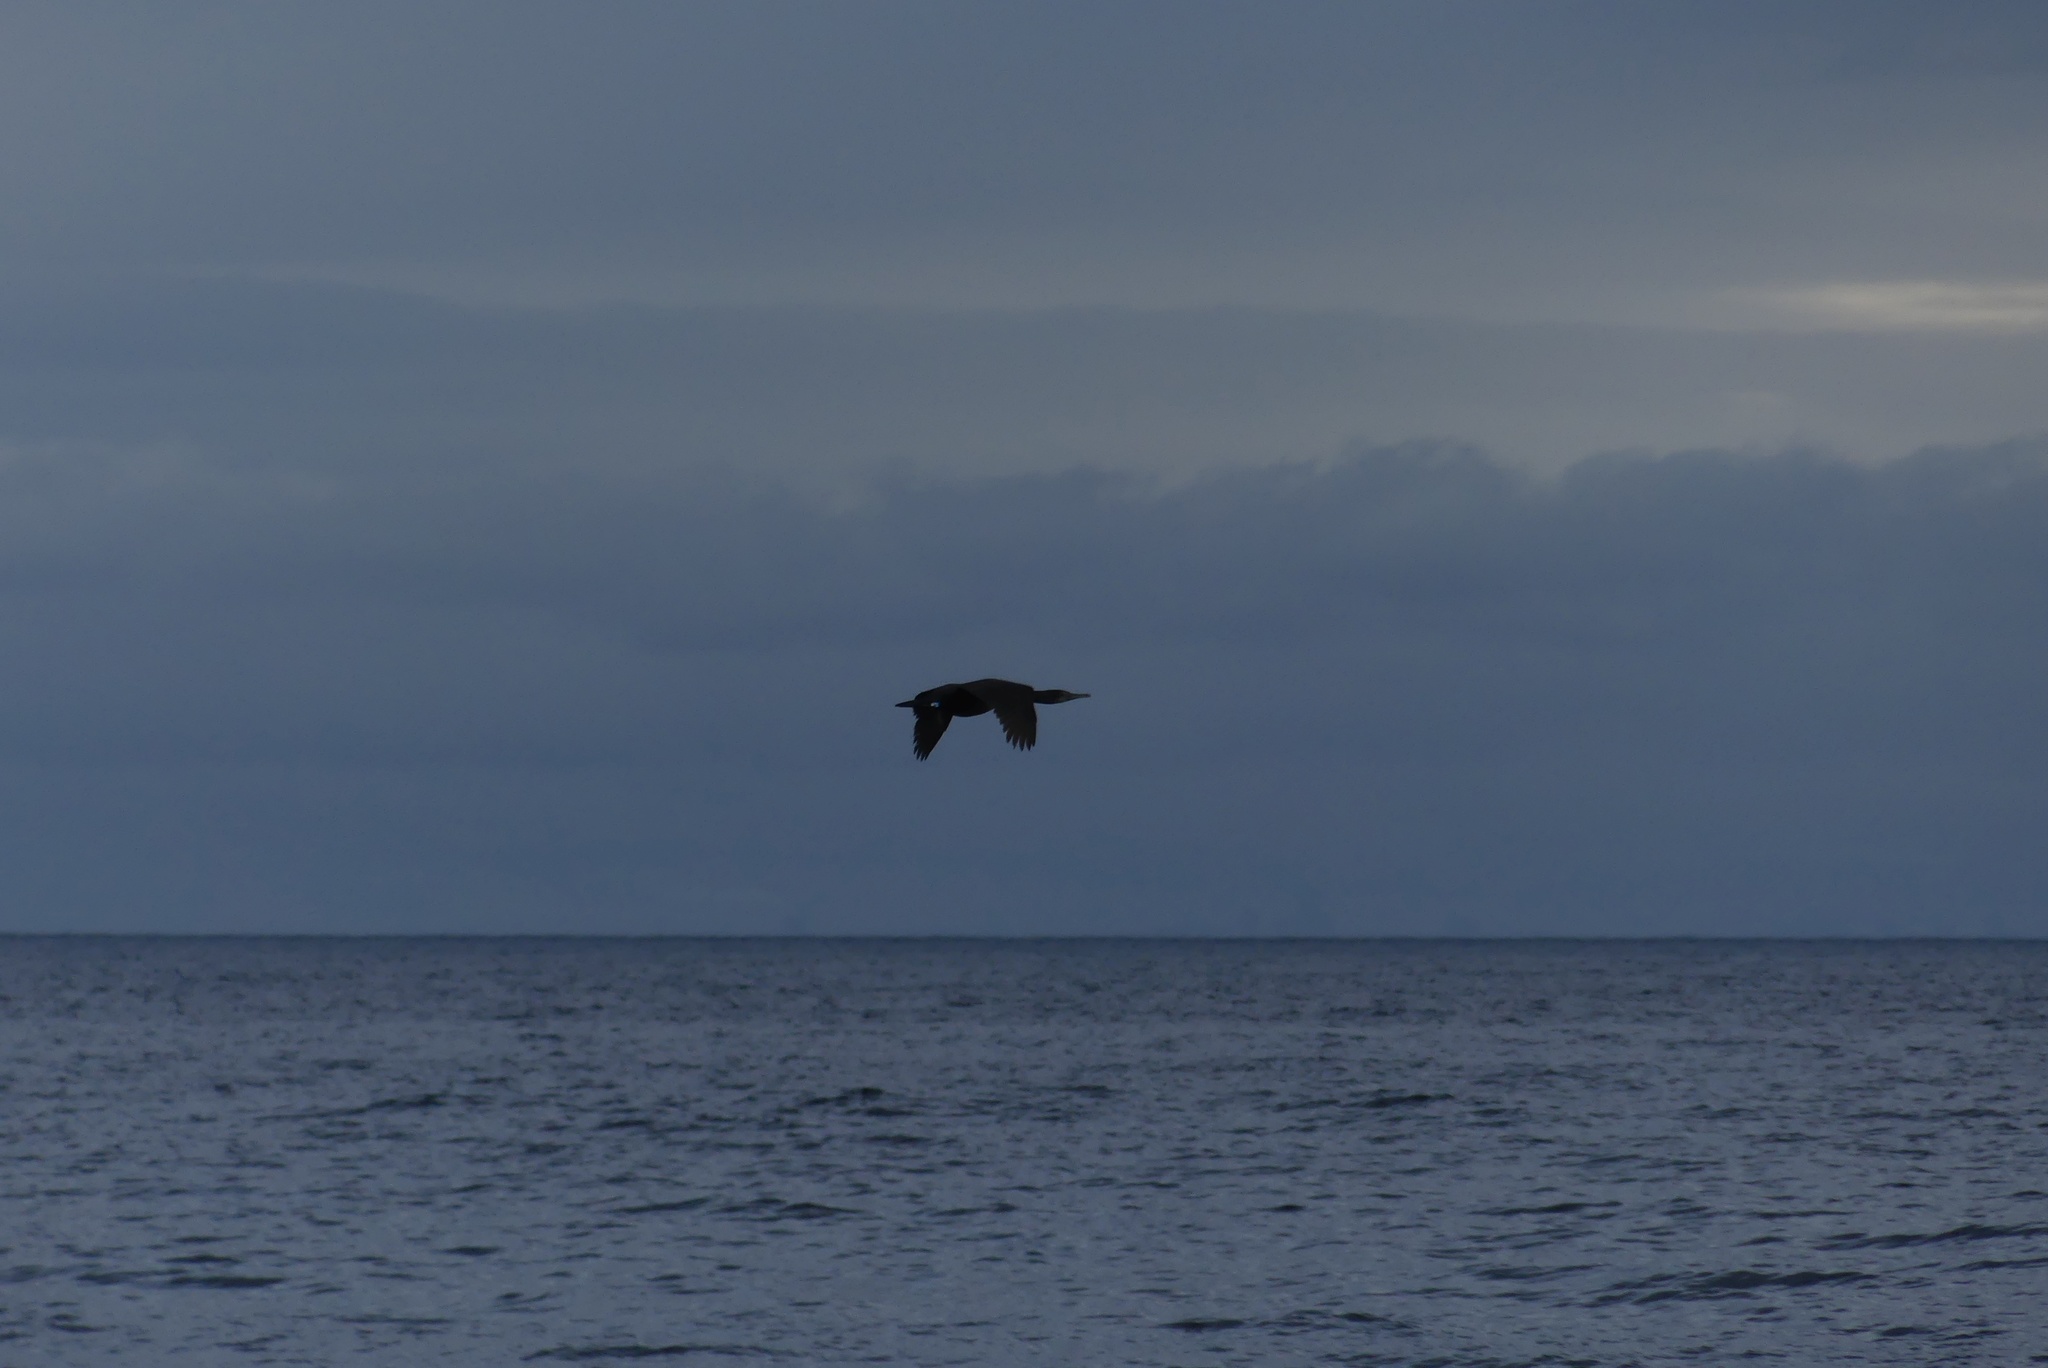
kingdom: Animalia
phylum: Chordata
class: Aves
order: Suliformes
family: Phalacrocoracidae
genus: Phalacrocorax
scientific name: Phalacrocorax pelagicus
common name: Pelagic cormorant
